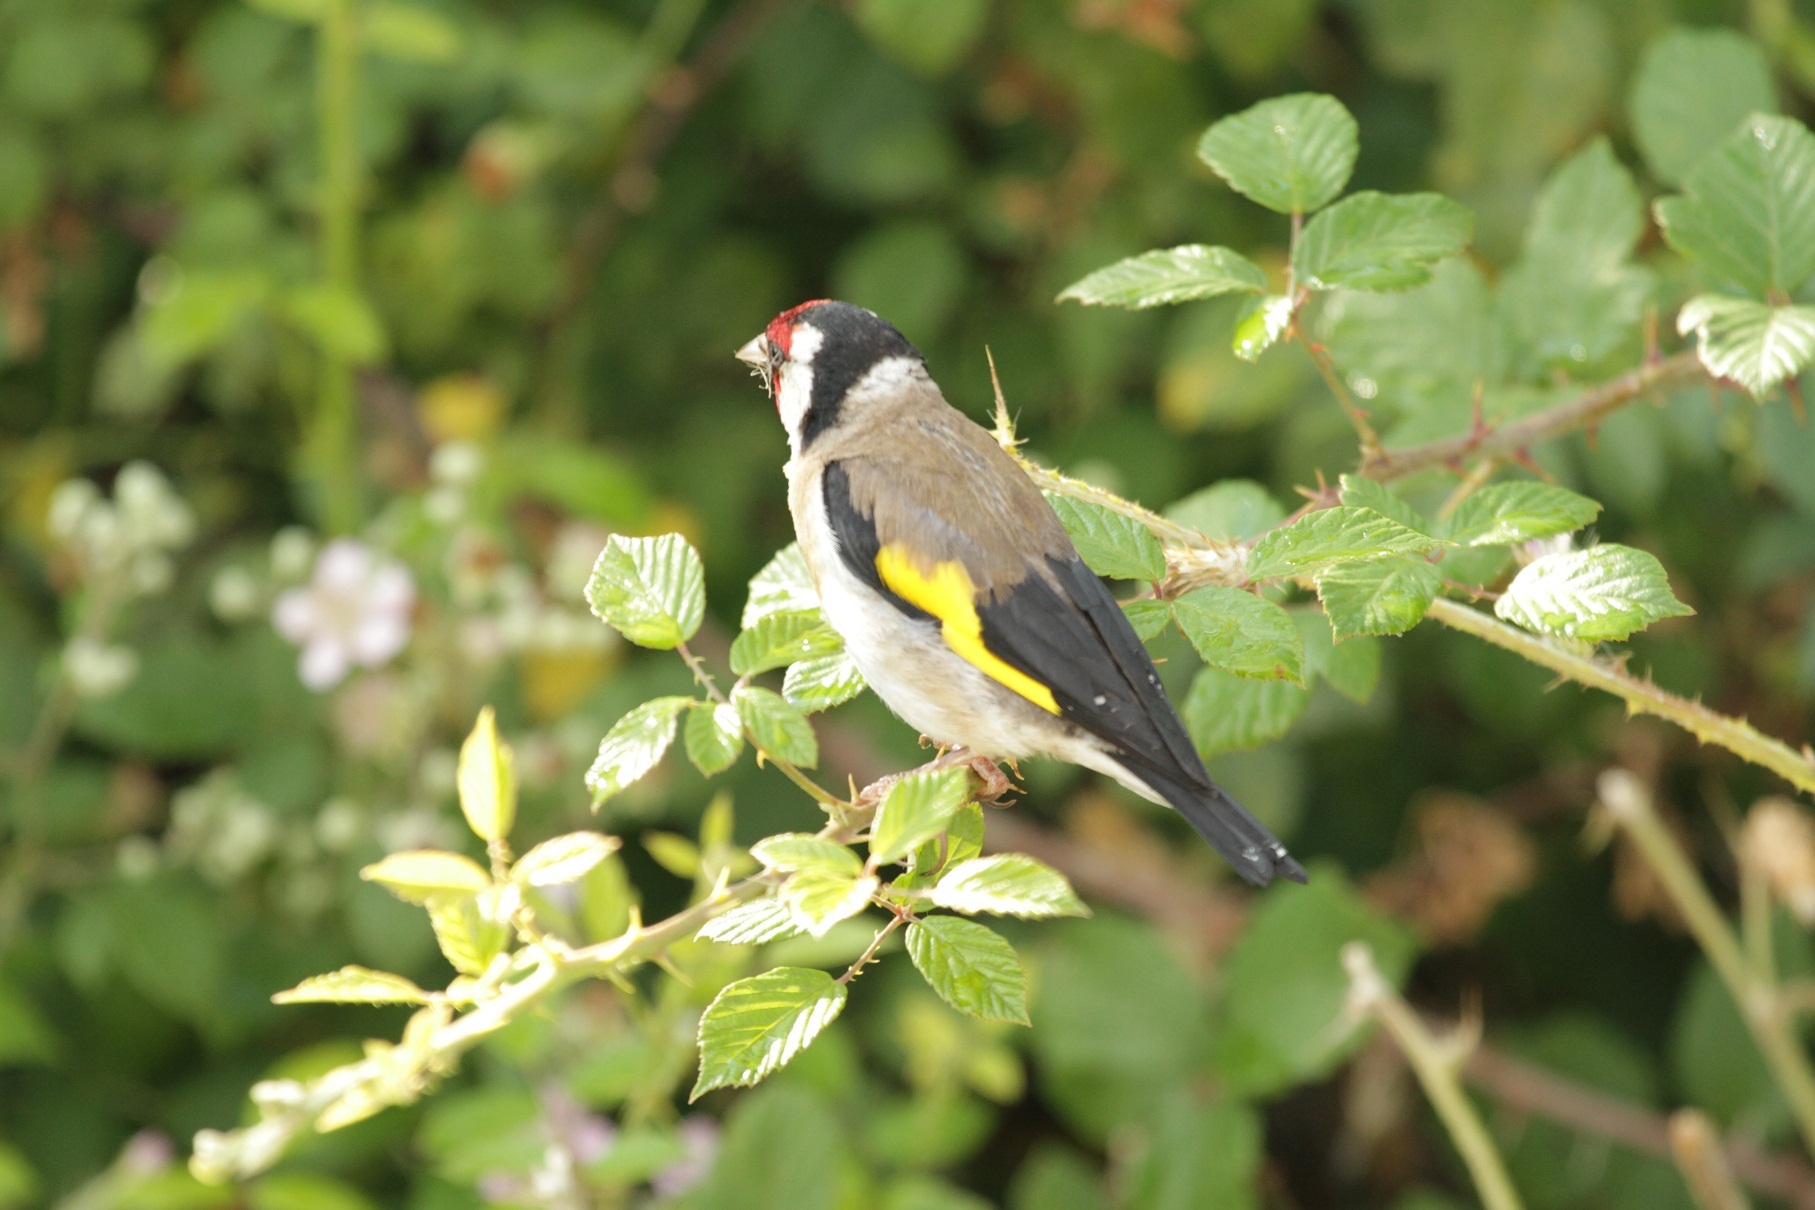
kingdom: Animalia
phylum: Chordata
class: Aves
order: Passeriformes
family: Fringillidae
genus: Carduelis
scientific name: Carduelis carduelis
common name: European goldfinch
